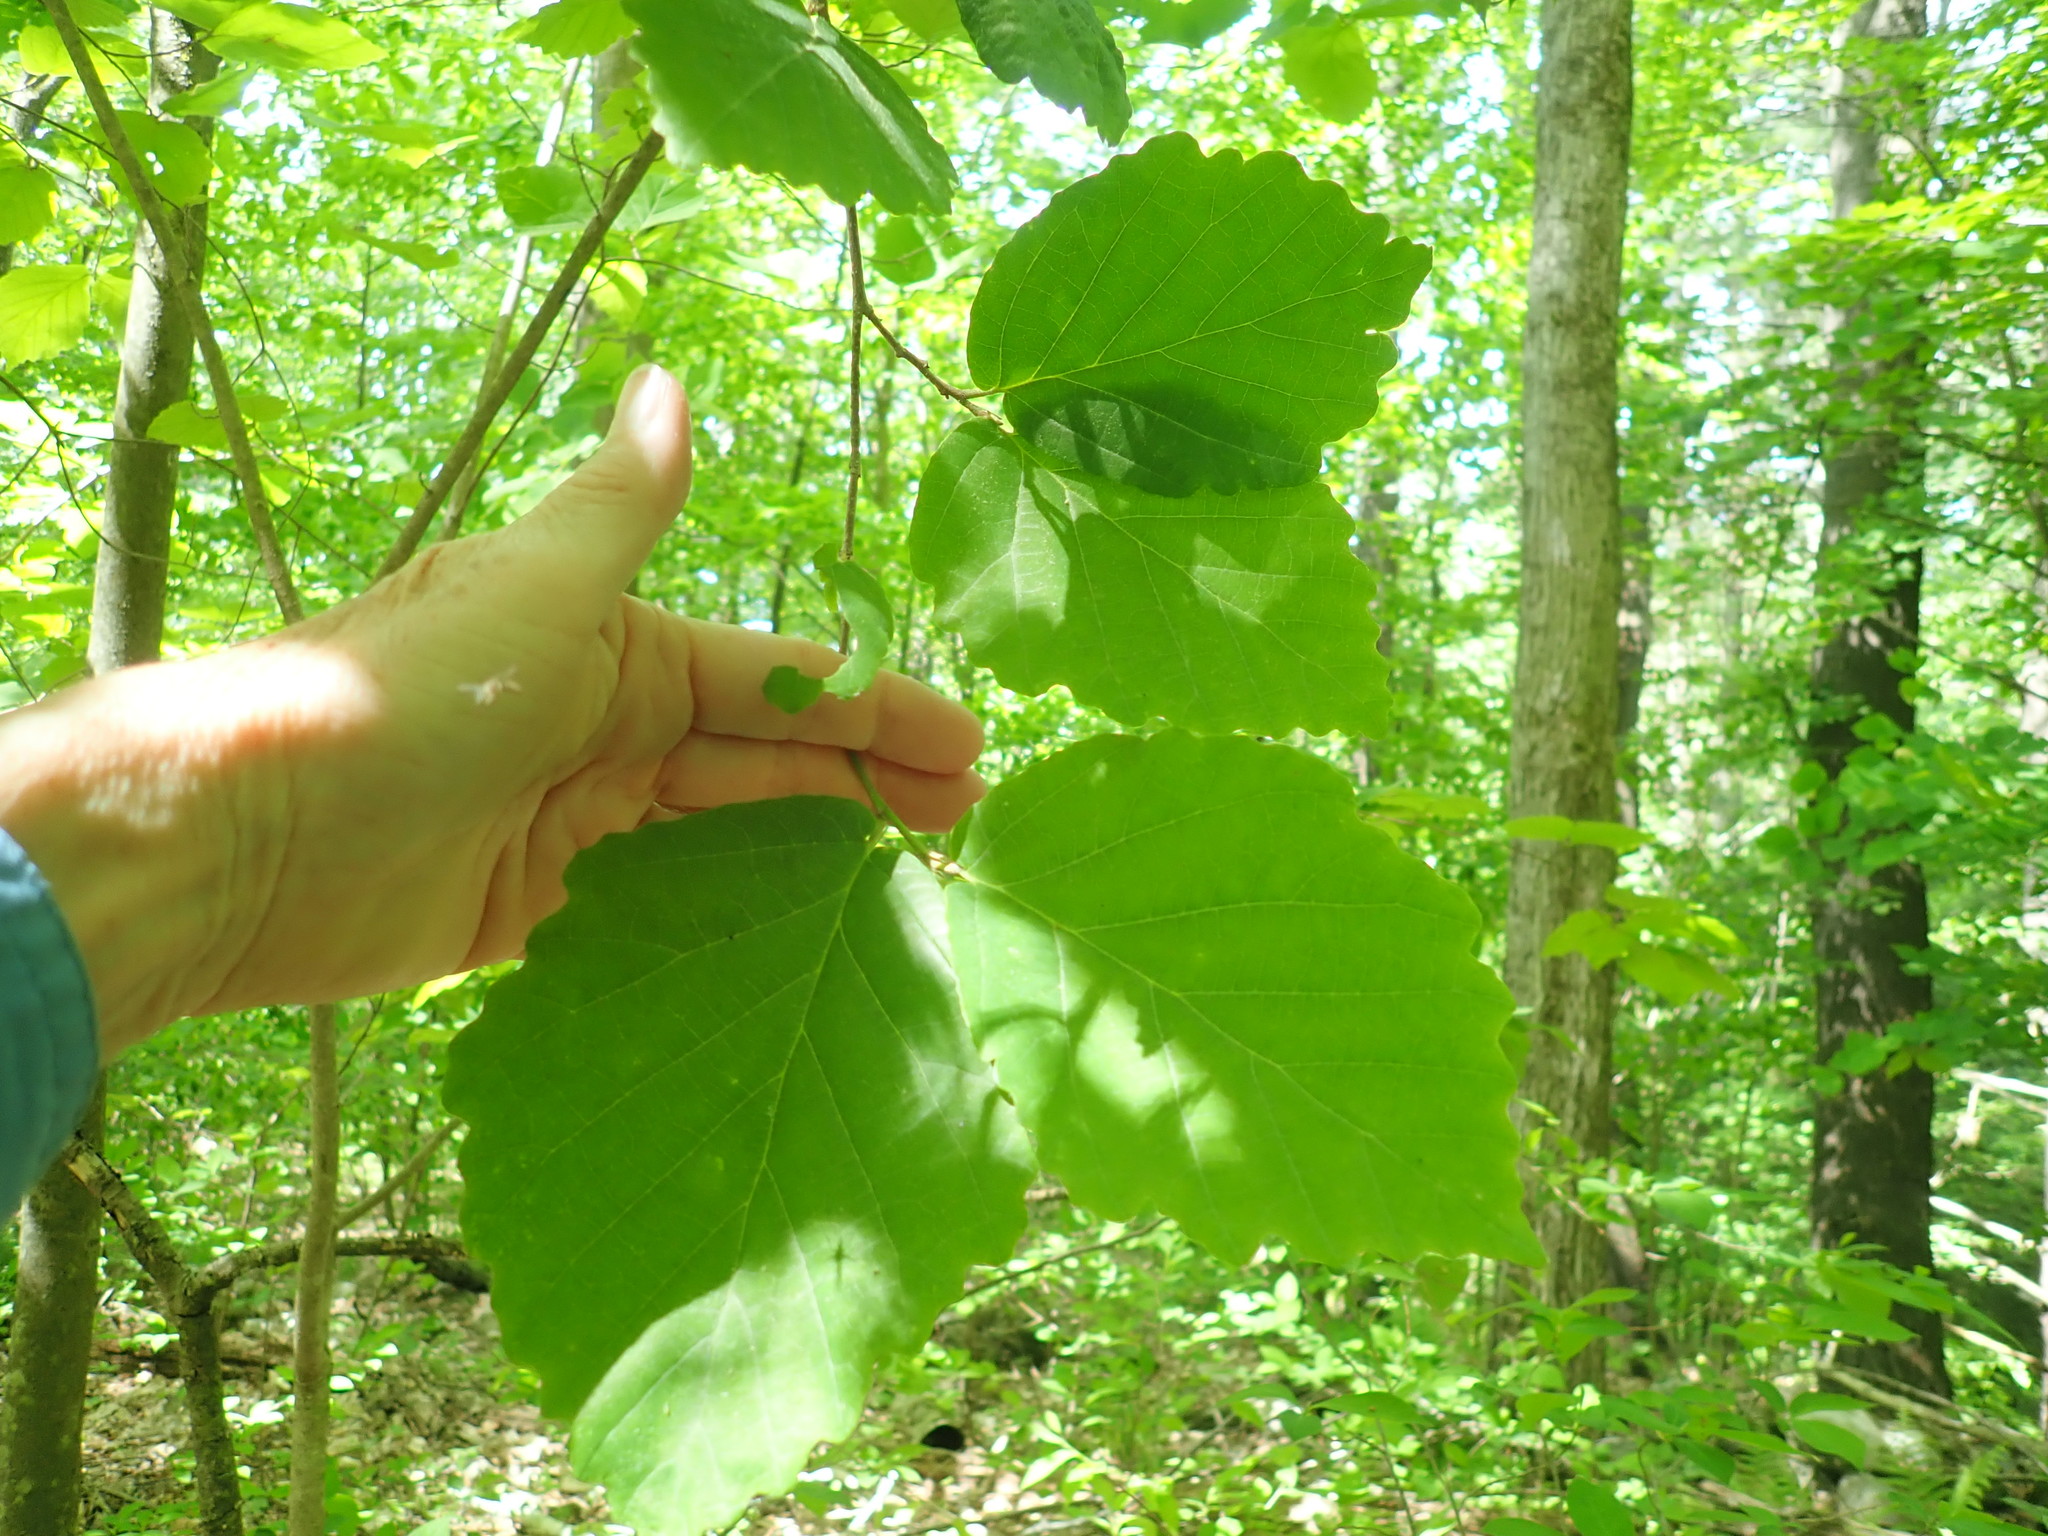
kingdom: Plantae
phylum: Tracheophyta
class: Magnoliopsida
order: Saxifragales
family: Hamamelidaceae
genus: Hamamelis
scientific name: Hamamelis virginiana
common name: Witch-hazel
